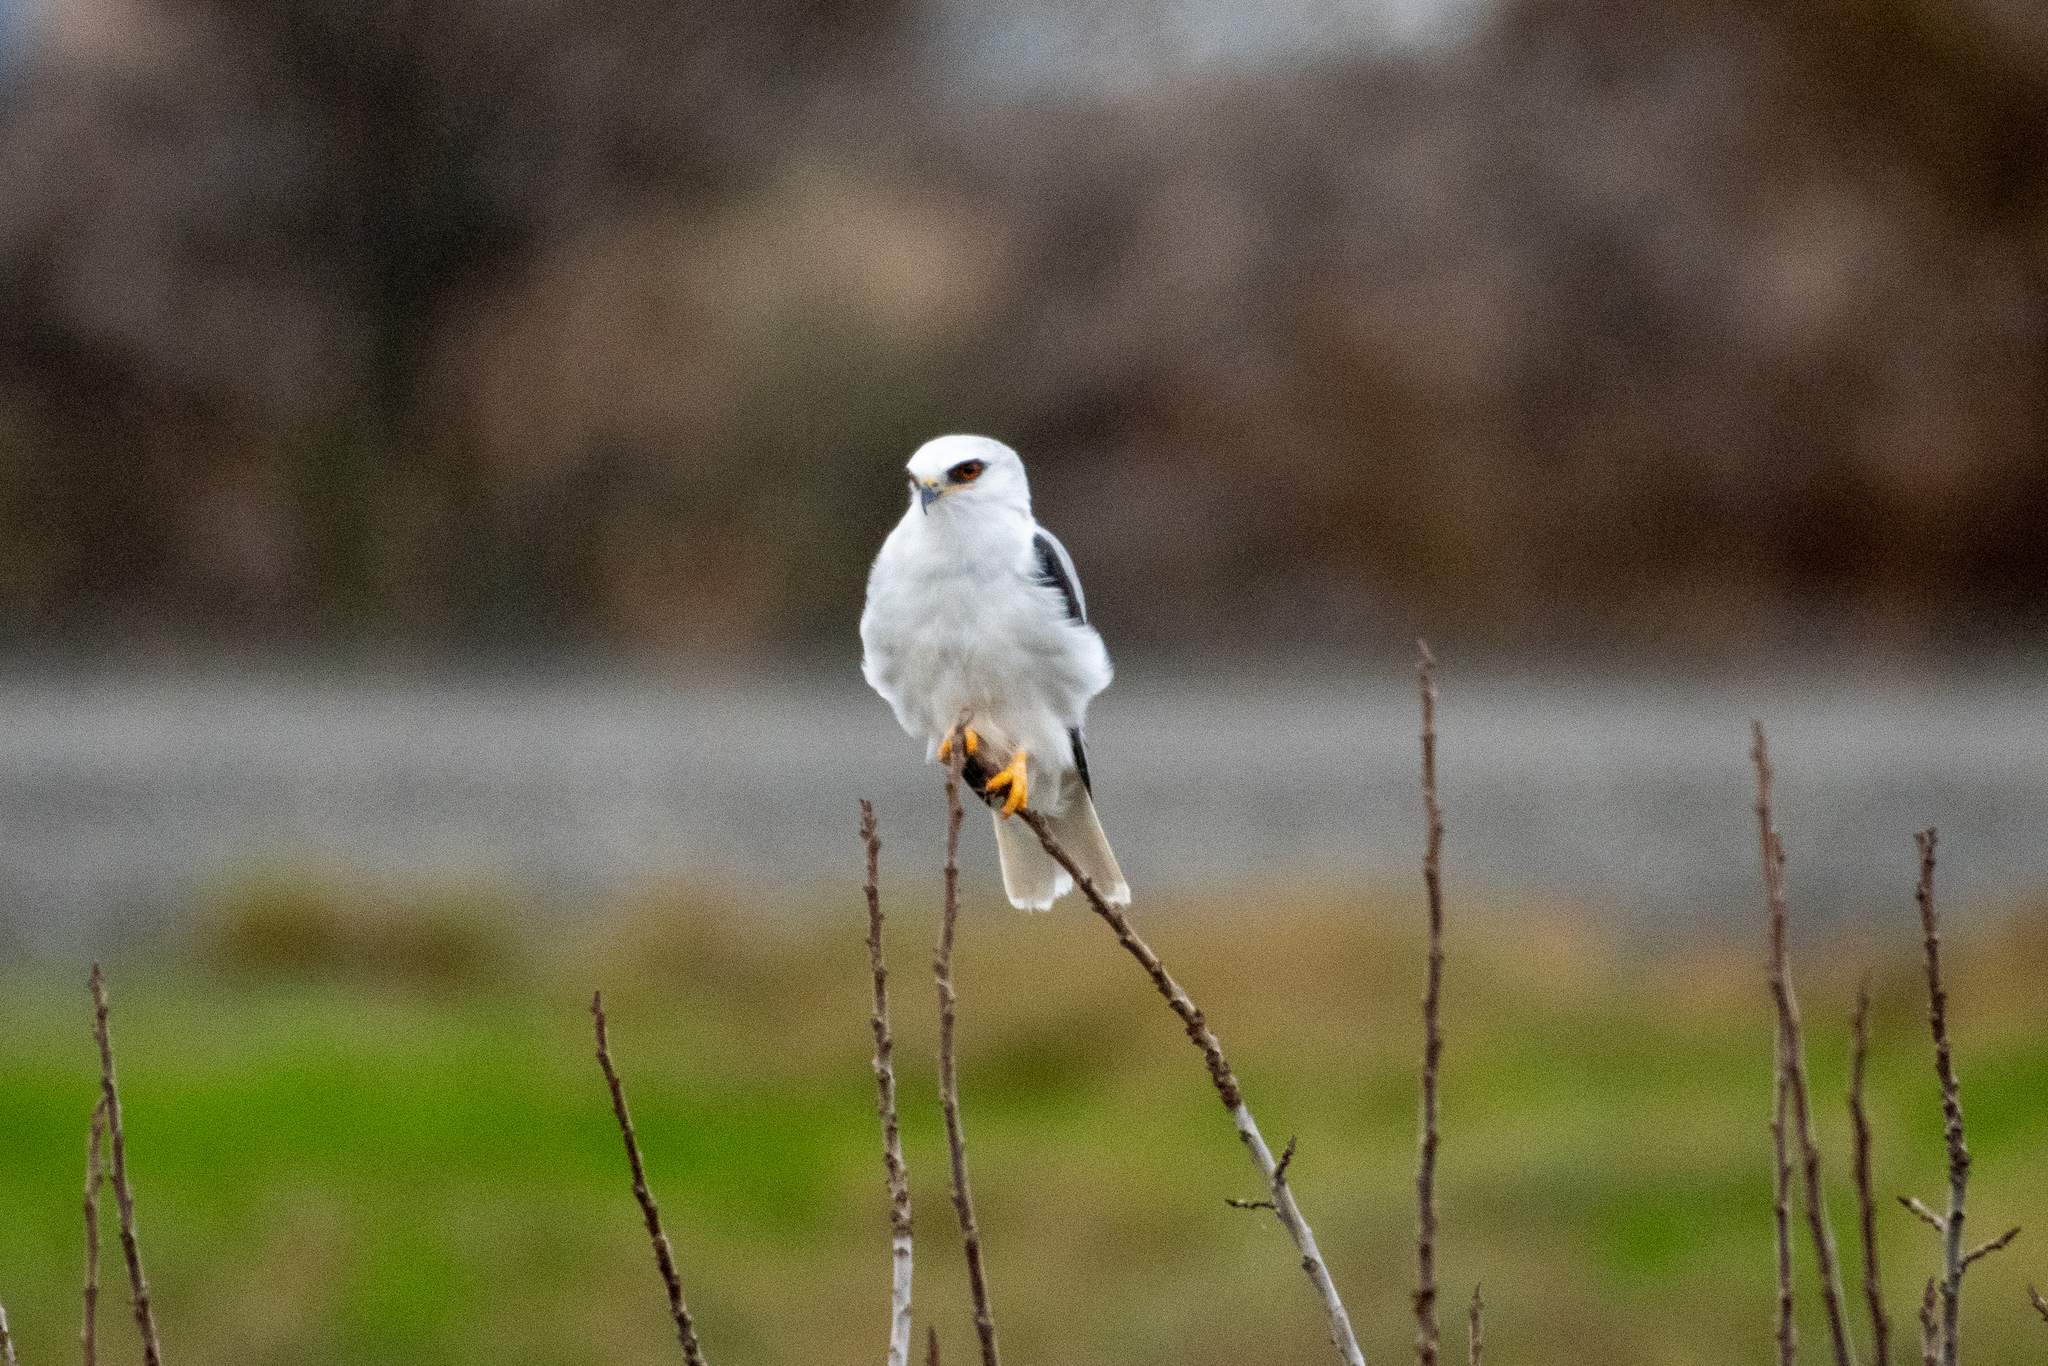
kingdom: Animalia
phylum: Chordata
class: Aves
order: Accipitriformes
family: Accipitridae
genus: Elanus
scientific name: Elanus leucurus
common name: White-tailed kite
